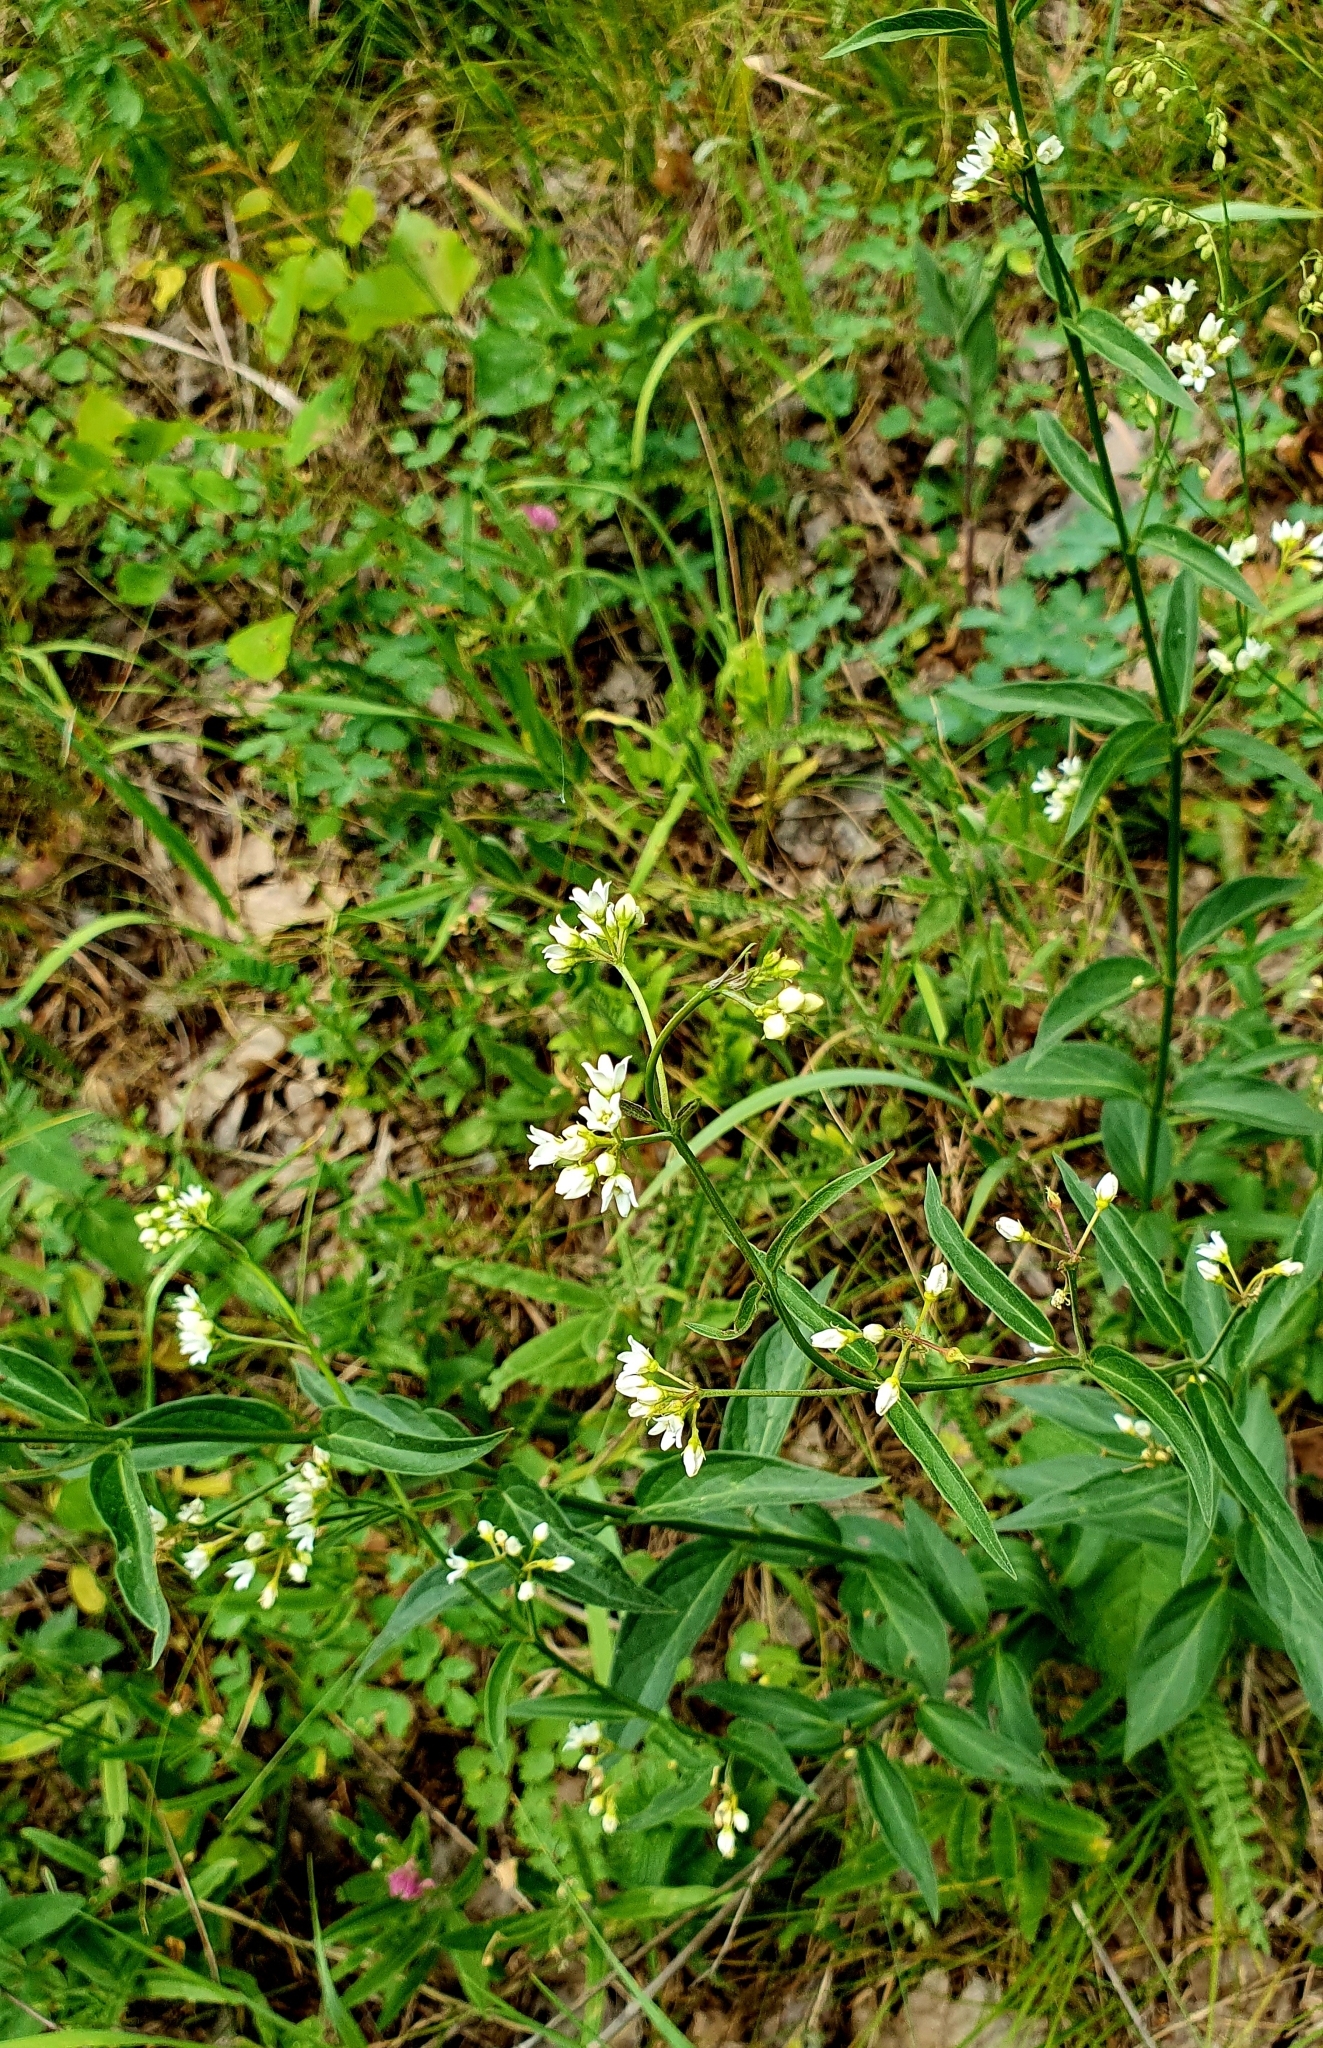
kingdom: Plantae
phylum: Tracheophyta
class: Magnoliopsida
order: Gentianales
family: Apocynaceae
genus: Vincetoxicum
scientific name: Vincetoxicum hirundinaria
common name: White swallowwort
